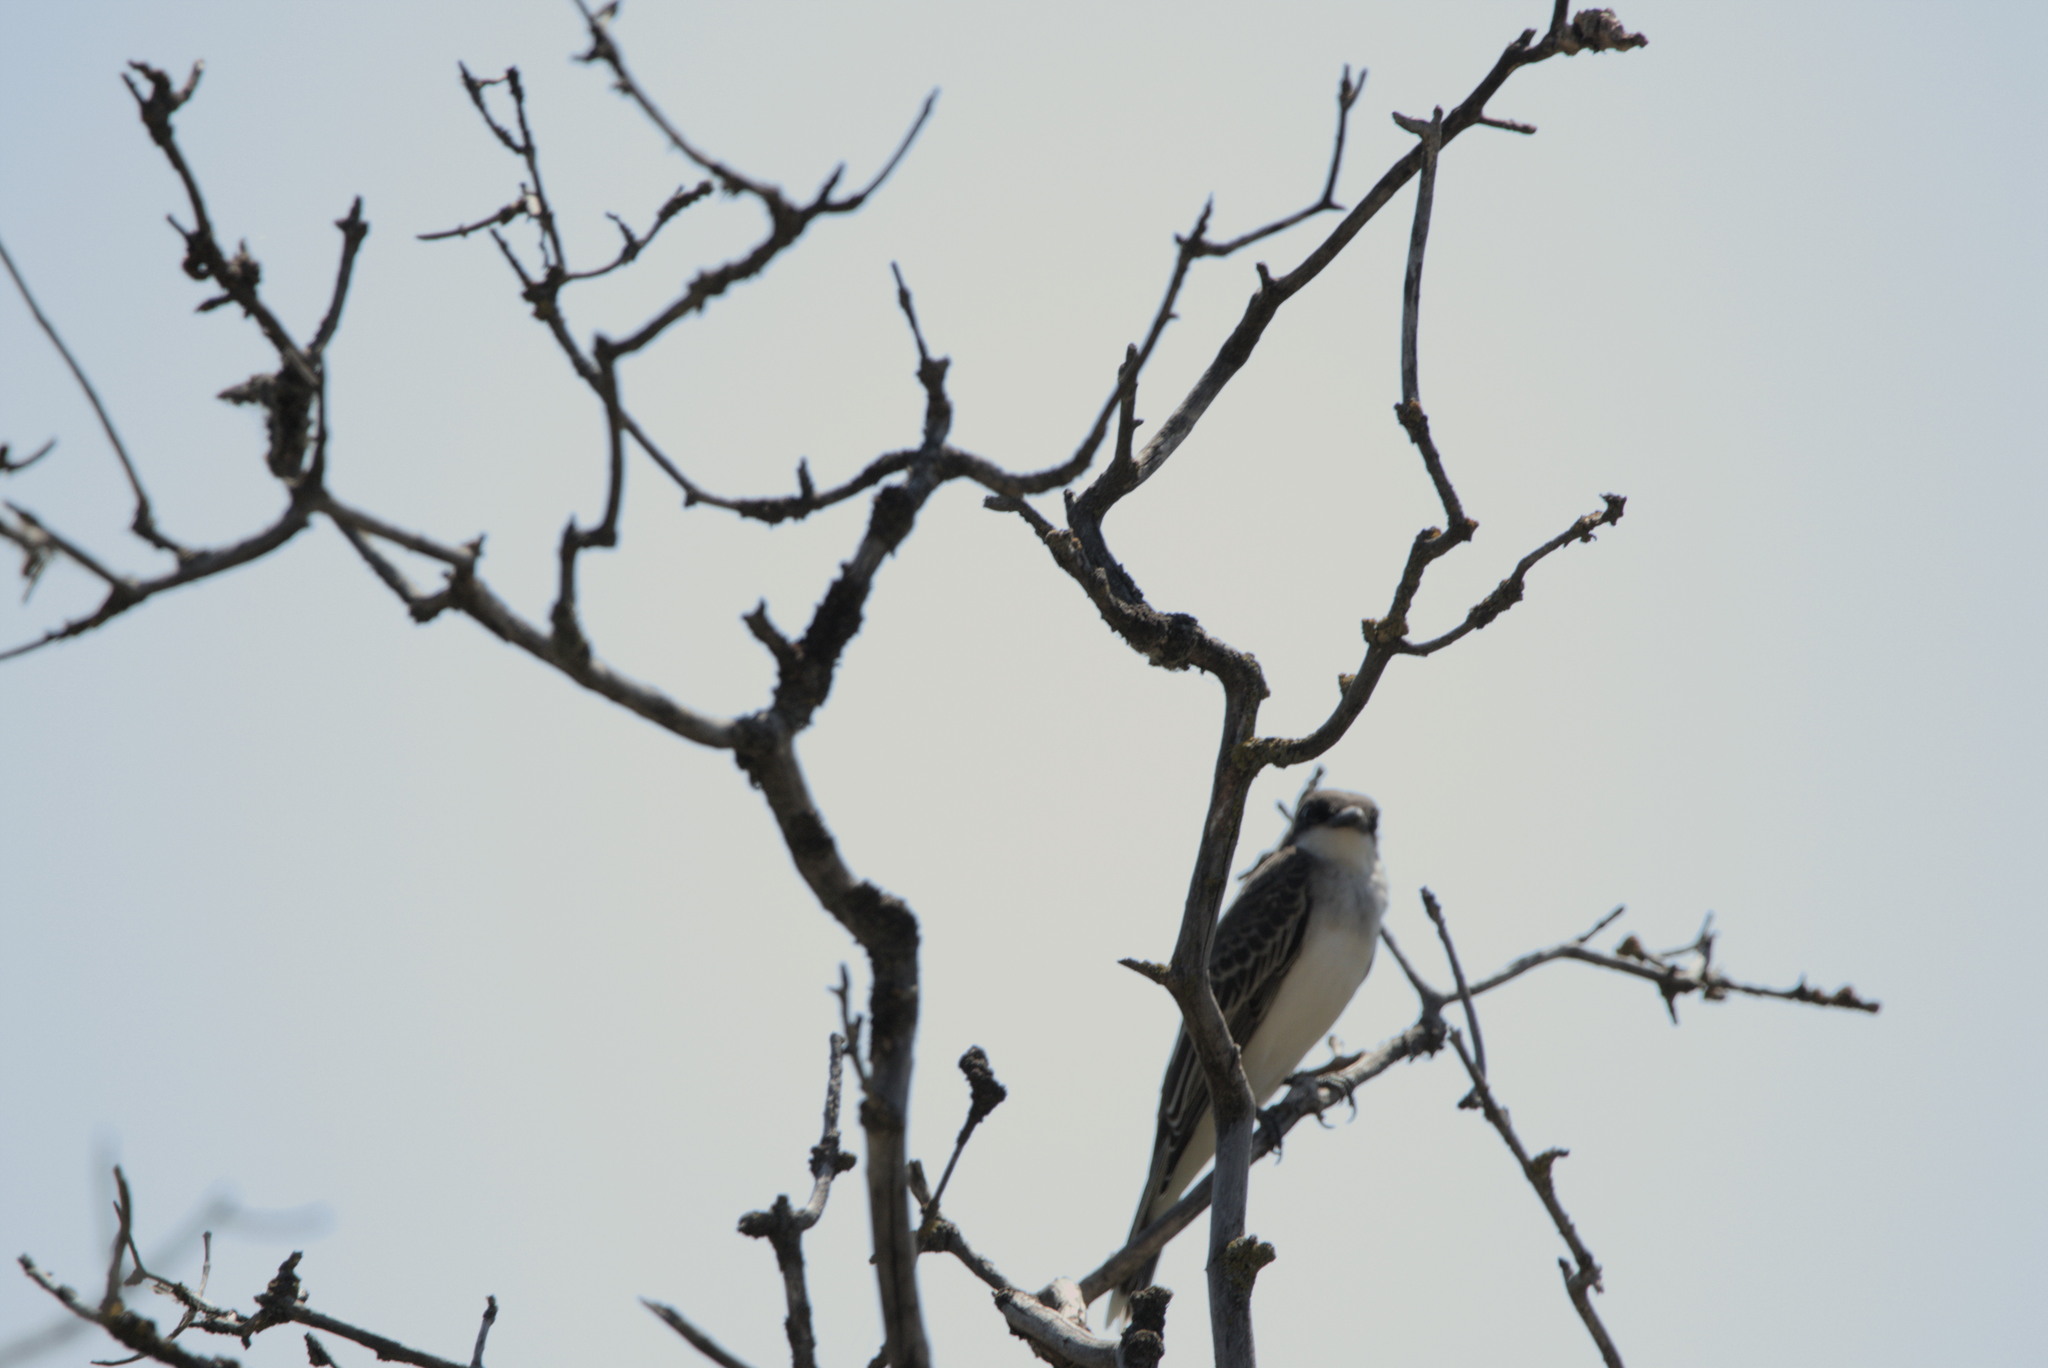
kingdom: Animalia
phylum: Chordata
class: Aves
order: Passeriformes
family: Tyrannidae
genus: Tyrannus
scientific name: Tyrannus tyrannus
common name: Eastern kingbird
